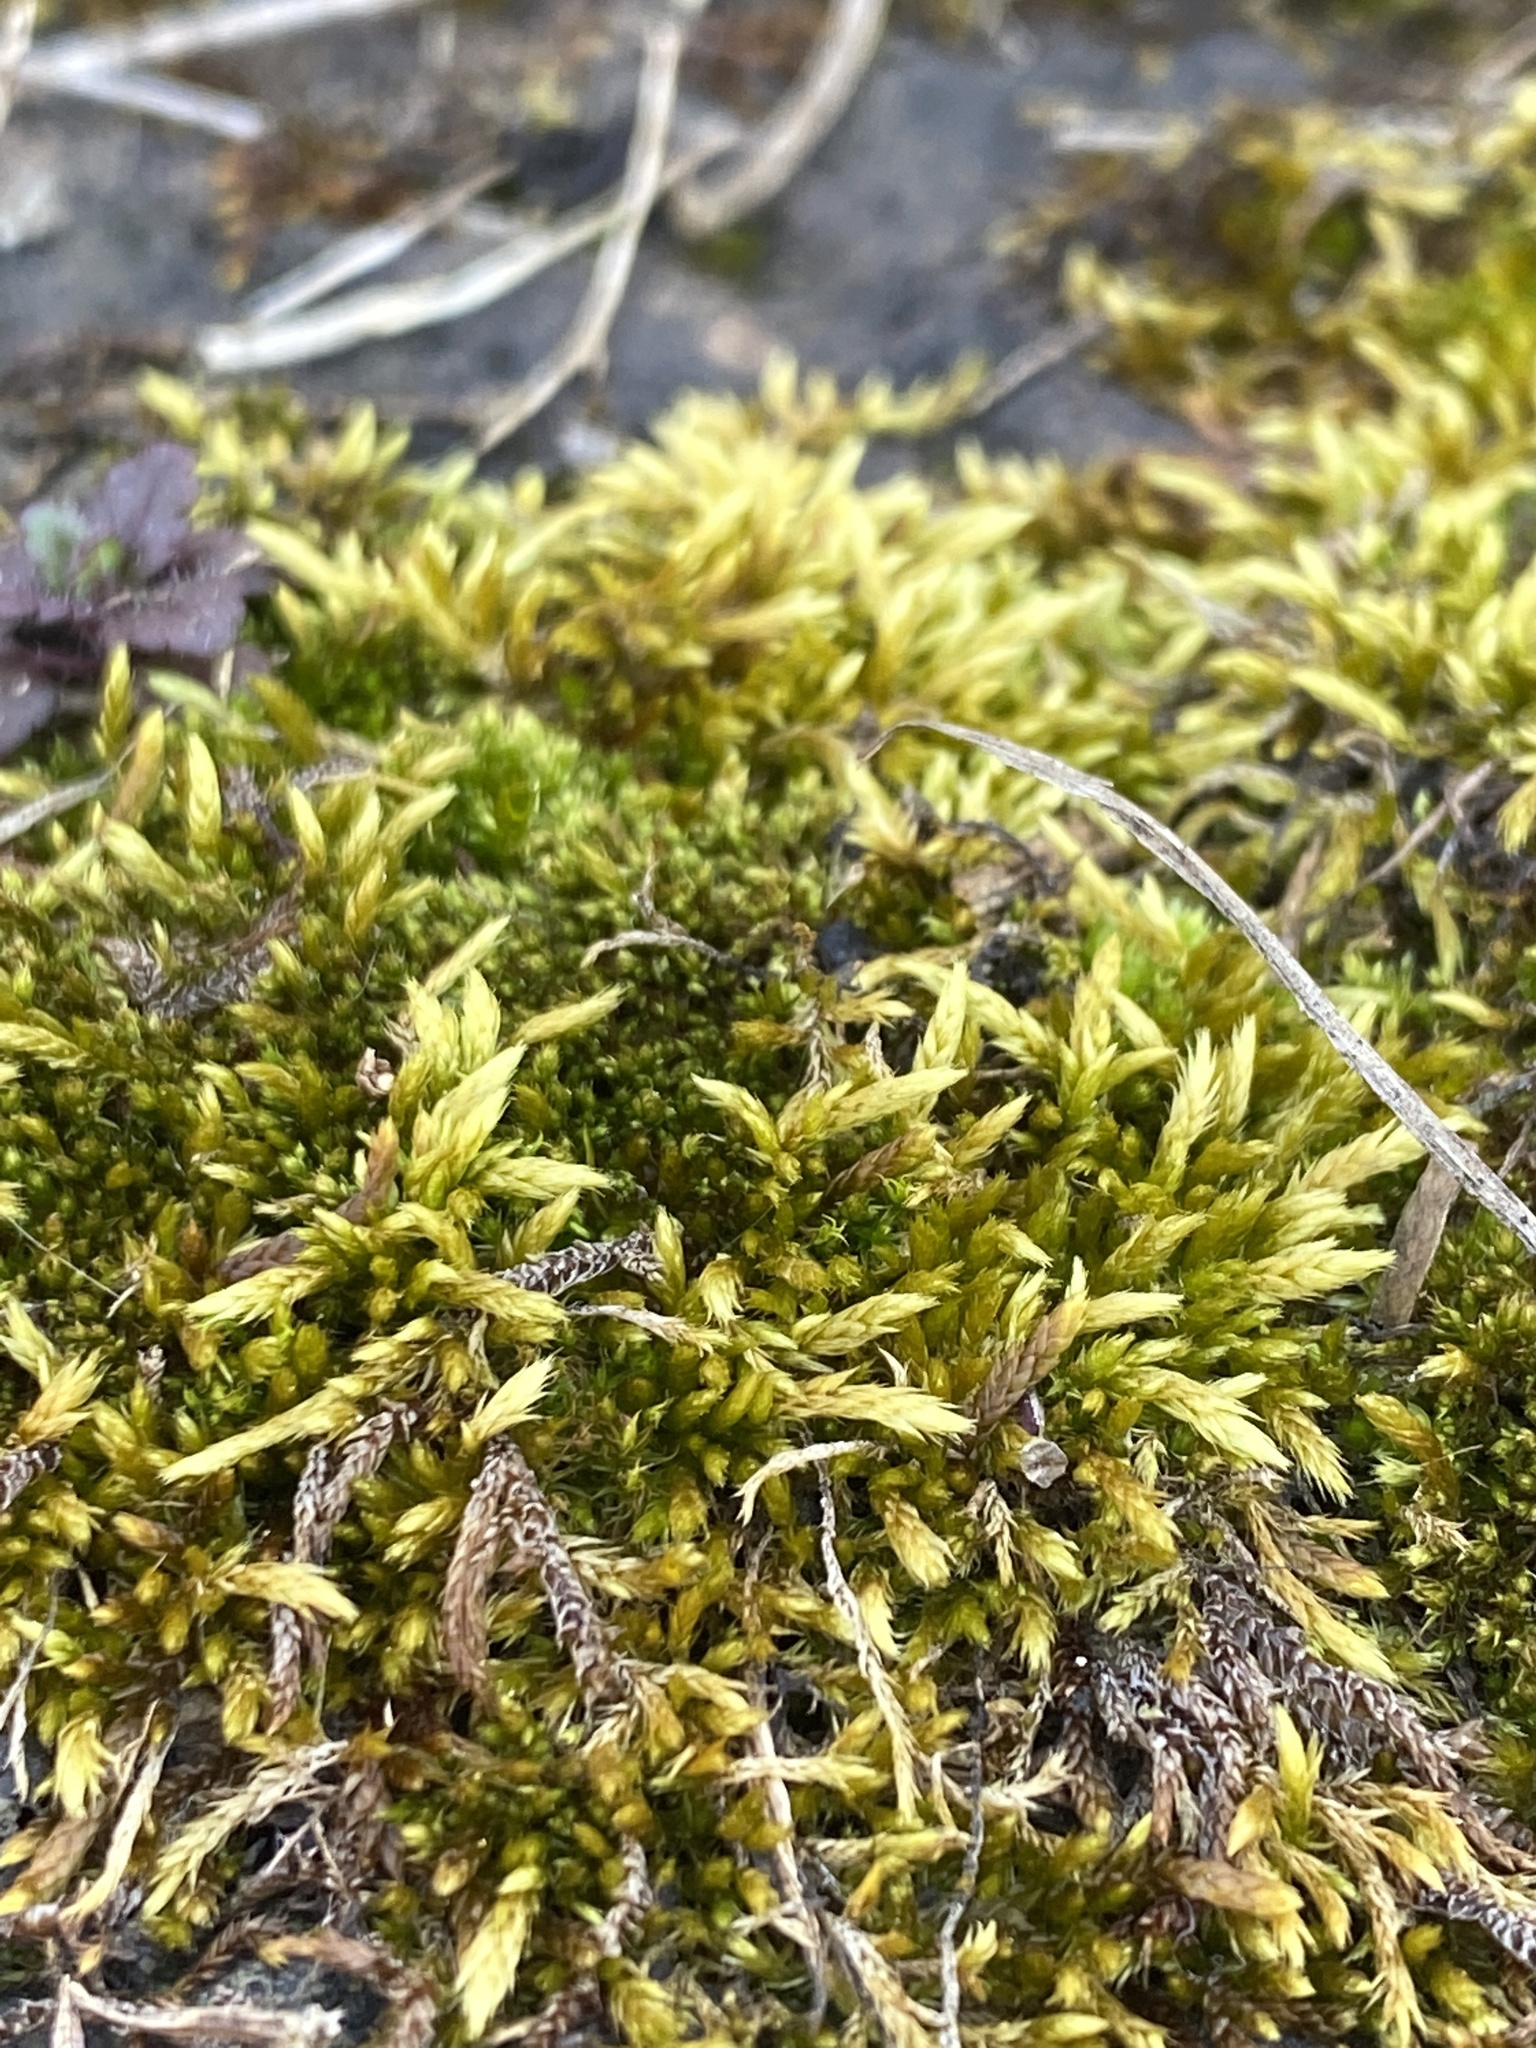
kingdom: Plantae
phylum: Bryophyta
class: Bryopsida
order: Hypnales
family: Entodontaceae
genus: Entodon
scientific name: Entodon seductrix
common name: Round-stemmed entodon moss
